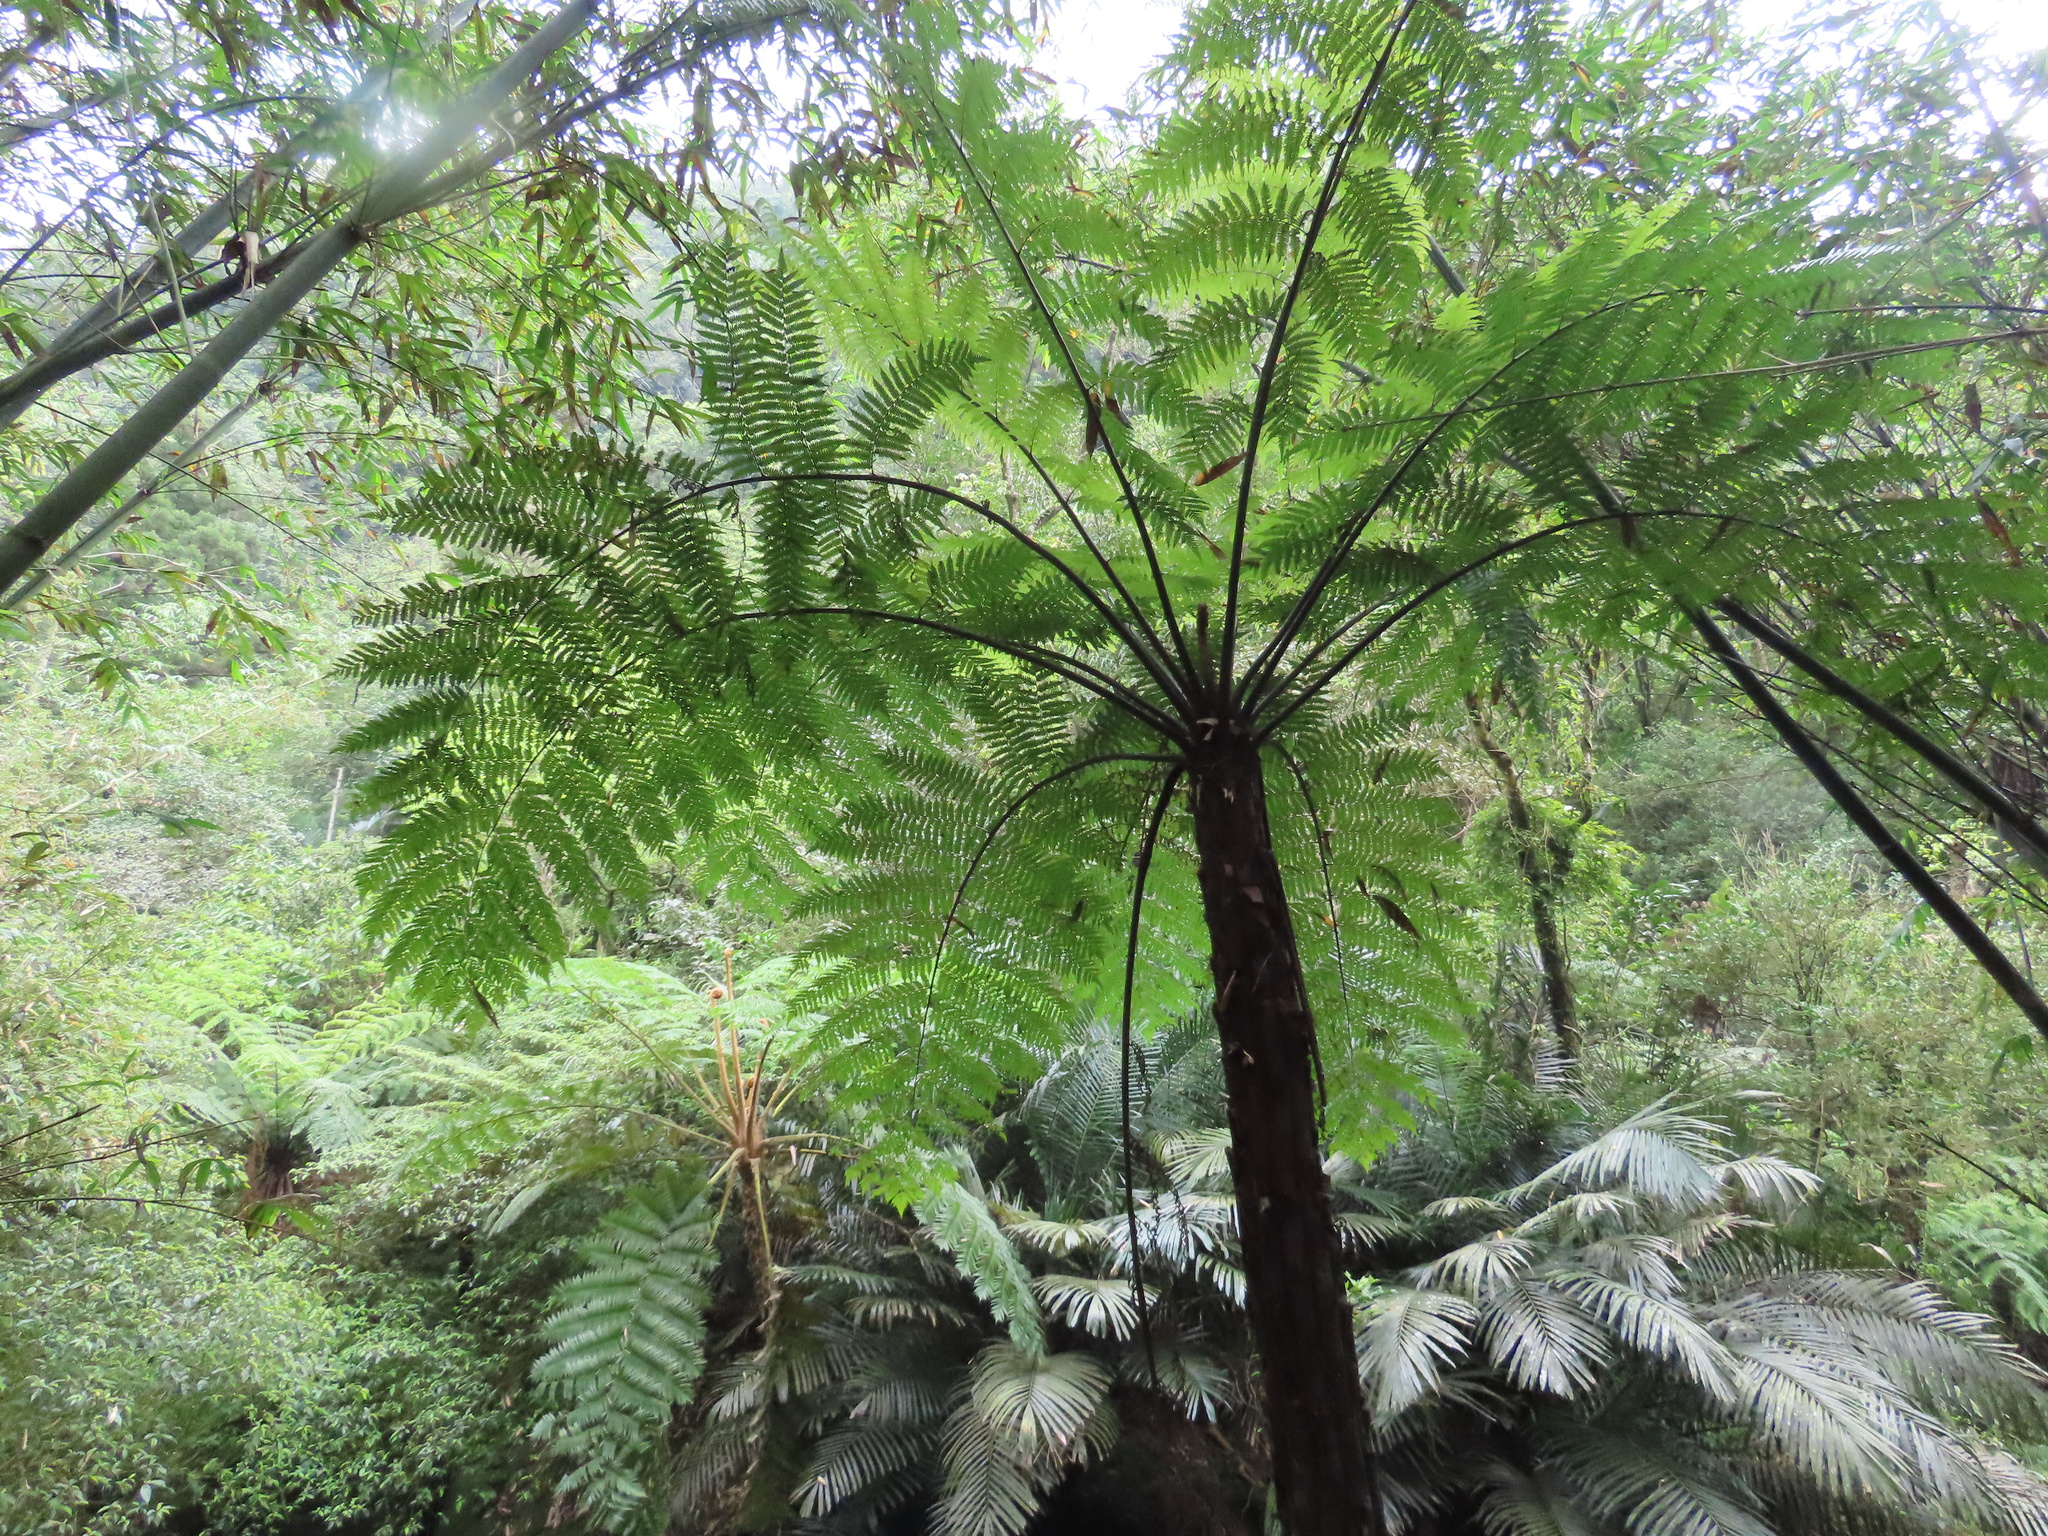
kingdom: Plantae
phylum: Tracheophyta
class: Polypodiopsida
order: Cyatheales
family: Cyatheaceae
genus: Alsophila
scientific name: Alsophila spinulosa
